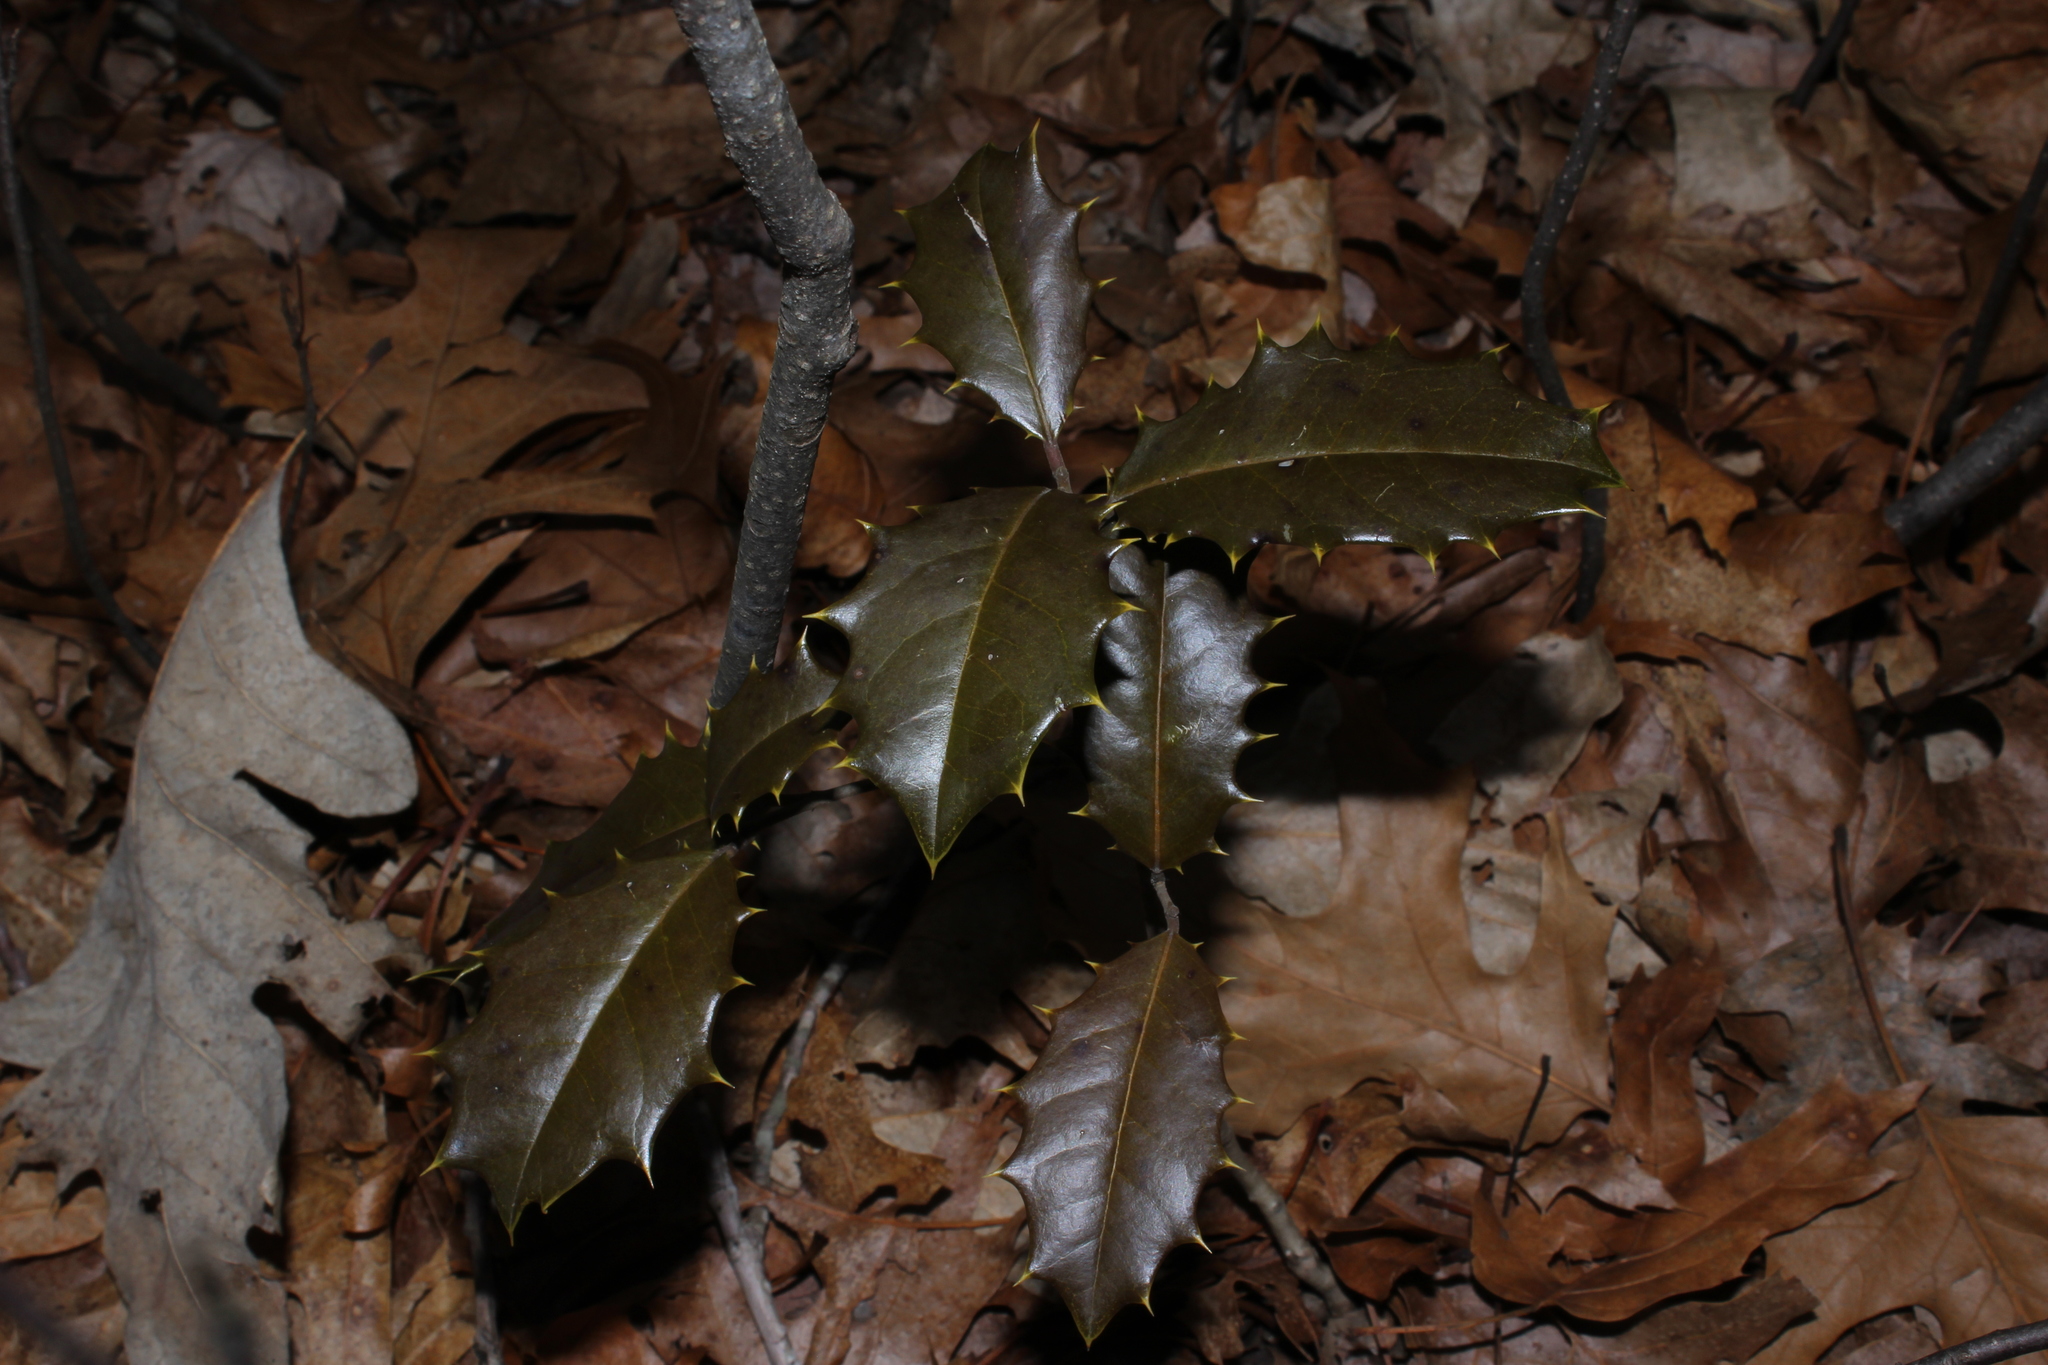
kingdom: Plantae
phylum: Tracheophyta
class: Magnoliopsida
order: Aquifoliales
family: Aquifoliaceae
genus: Ilex
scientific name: Ilex opaca
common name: American holly
